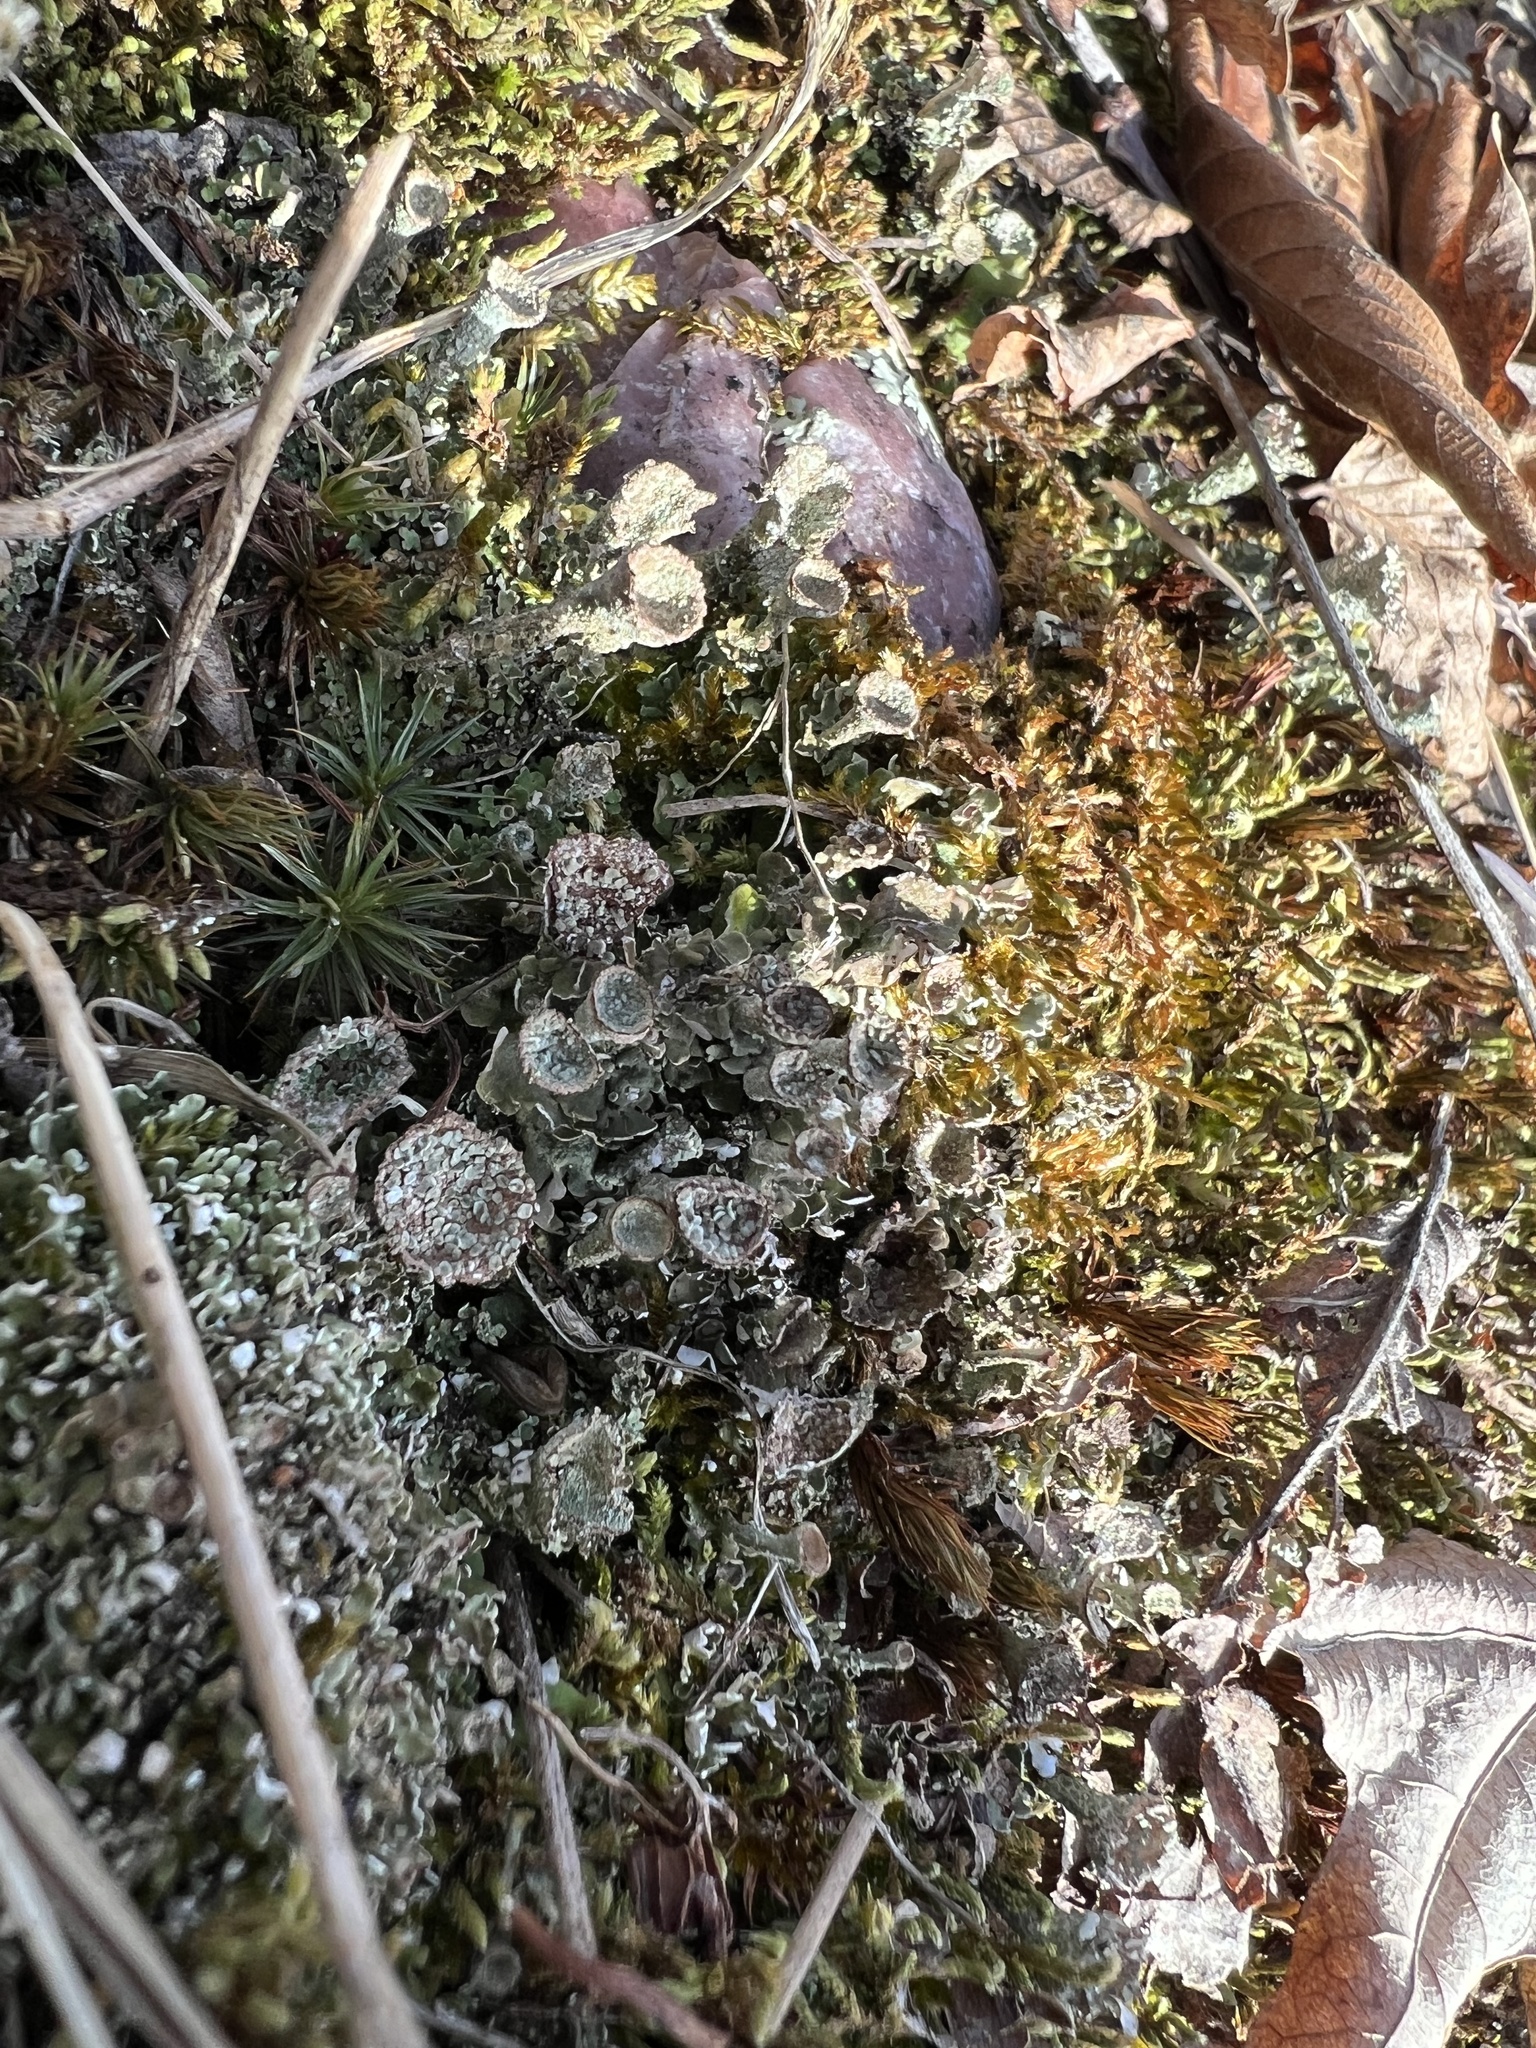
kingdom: Fungi
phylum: Ascomycota
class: Lecanoromycetes
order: Lecanorales
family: Cladoniaceae
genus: Cladonia
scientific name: Cladonia pyxidata
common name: Pebbled pixie cup
